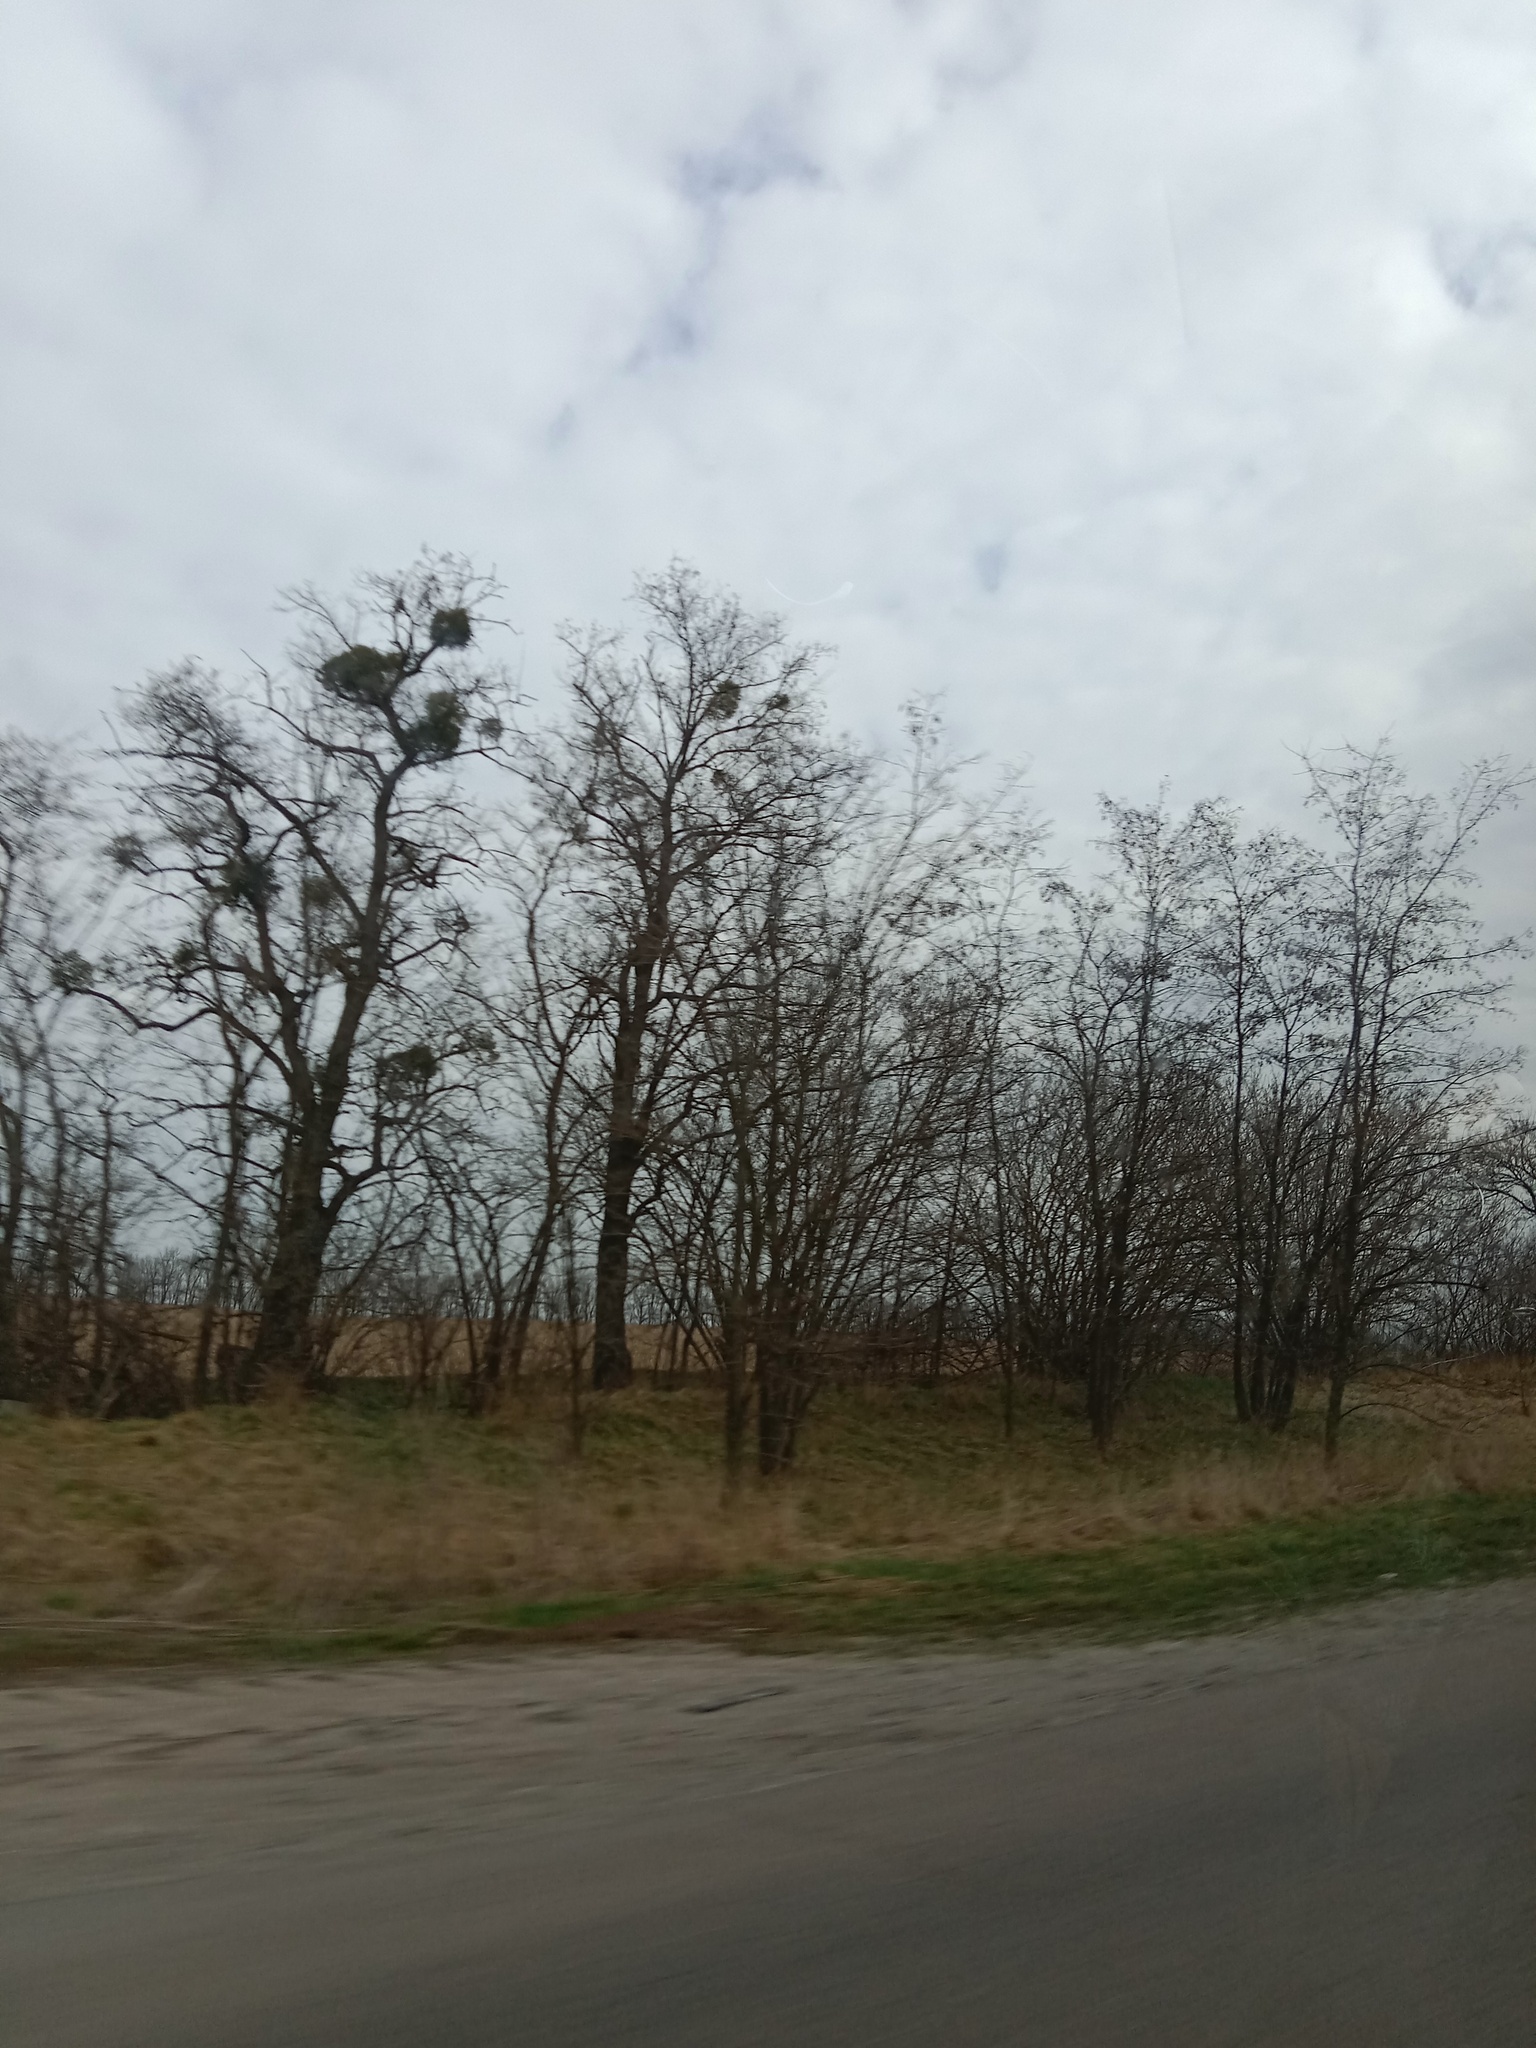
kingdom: Plantae
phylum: Tracheophyta
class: Magnoliopsida
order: Santalales
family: Viscaceae
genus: Viscum
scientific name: Viscum album
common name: Mistletoe
